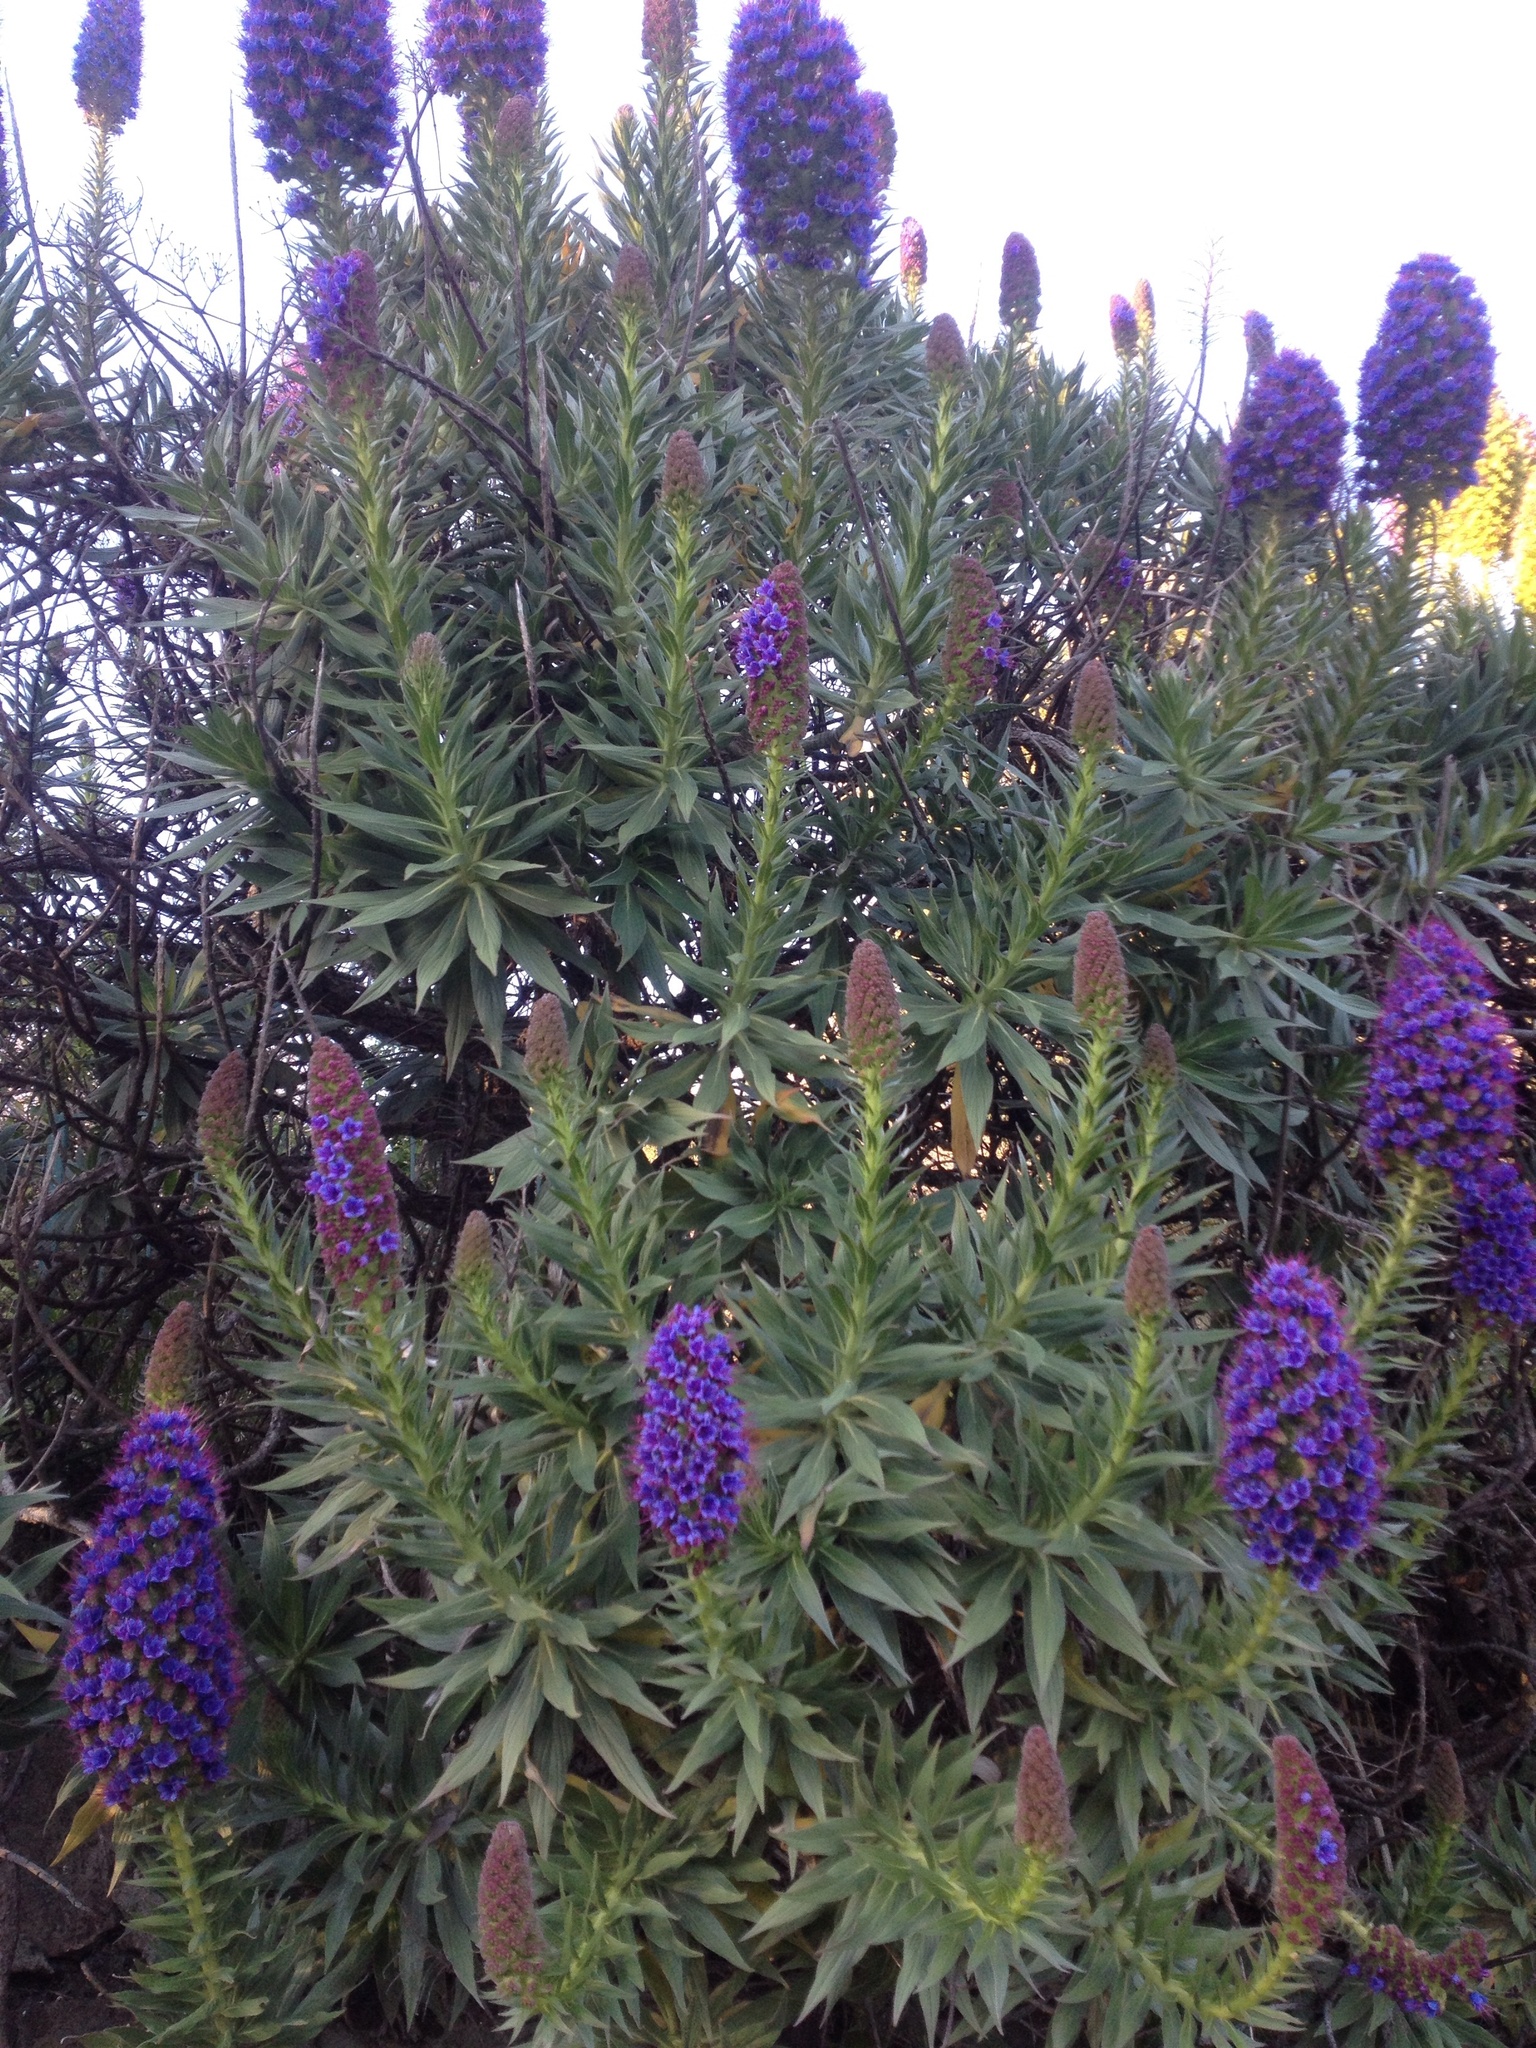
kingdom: Plantae
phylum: Tracheophyta
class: Magnoliopsida
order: Boraginales
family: Boraginaceae
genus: Echium
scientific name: Echium candicans
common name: Pride of madeira
